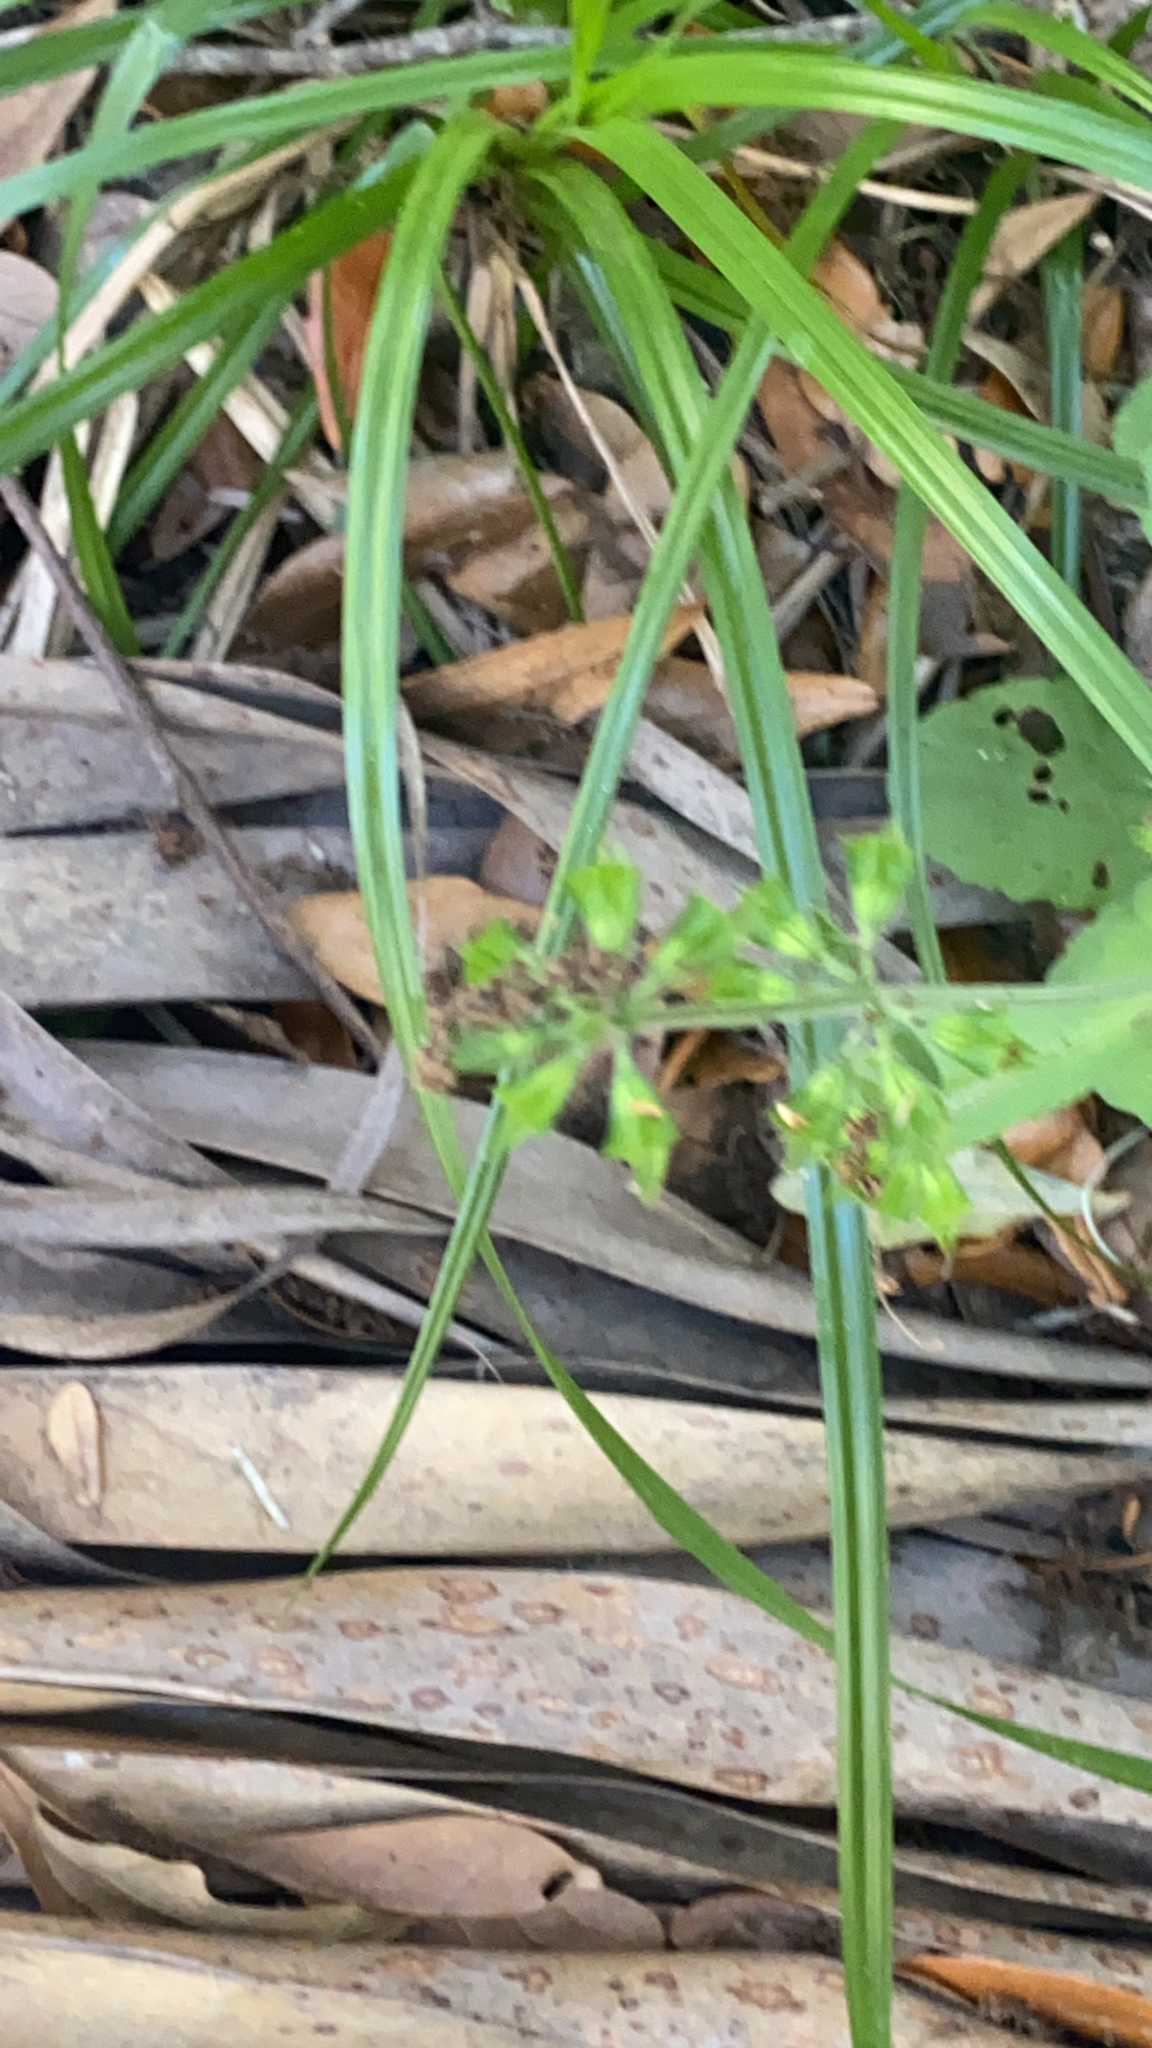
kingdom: Plantae
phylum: Tracheophyta
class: Magnoliopsida
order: Lamiales
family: Lamiaceae
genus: Salvia
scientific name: Salvia lyrata
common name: Cancerweed
